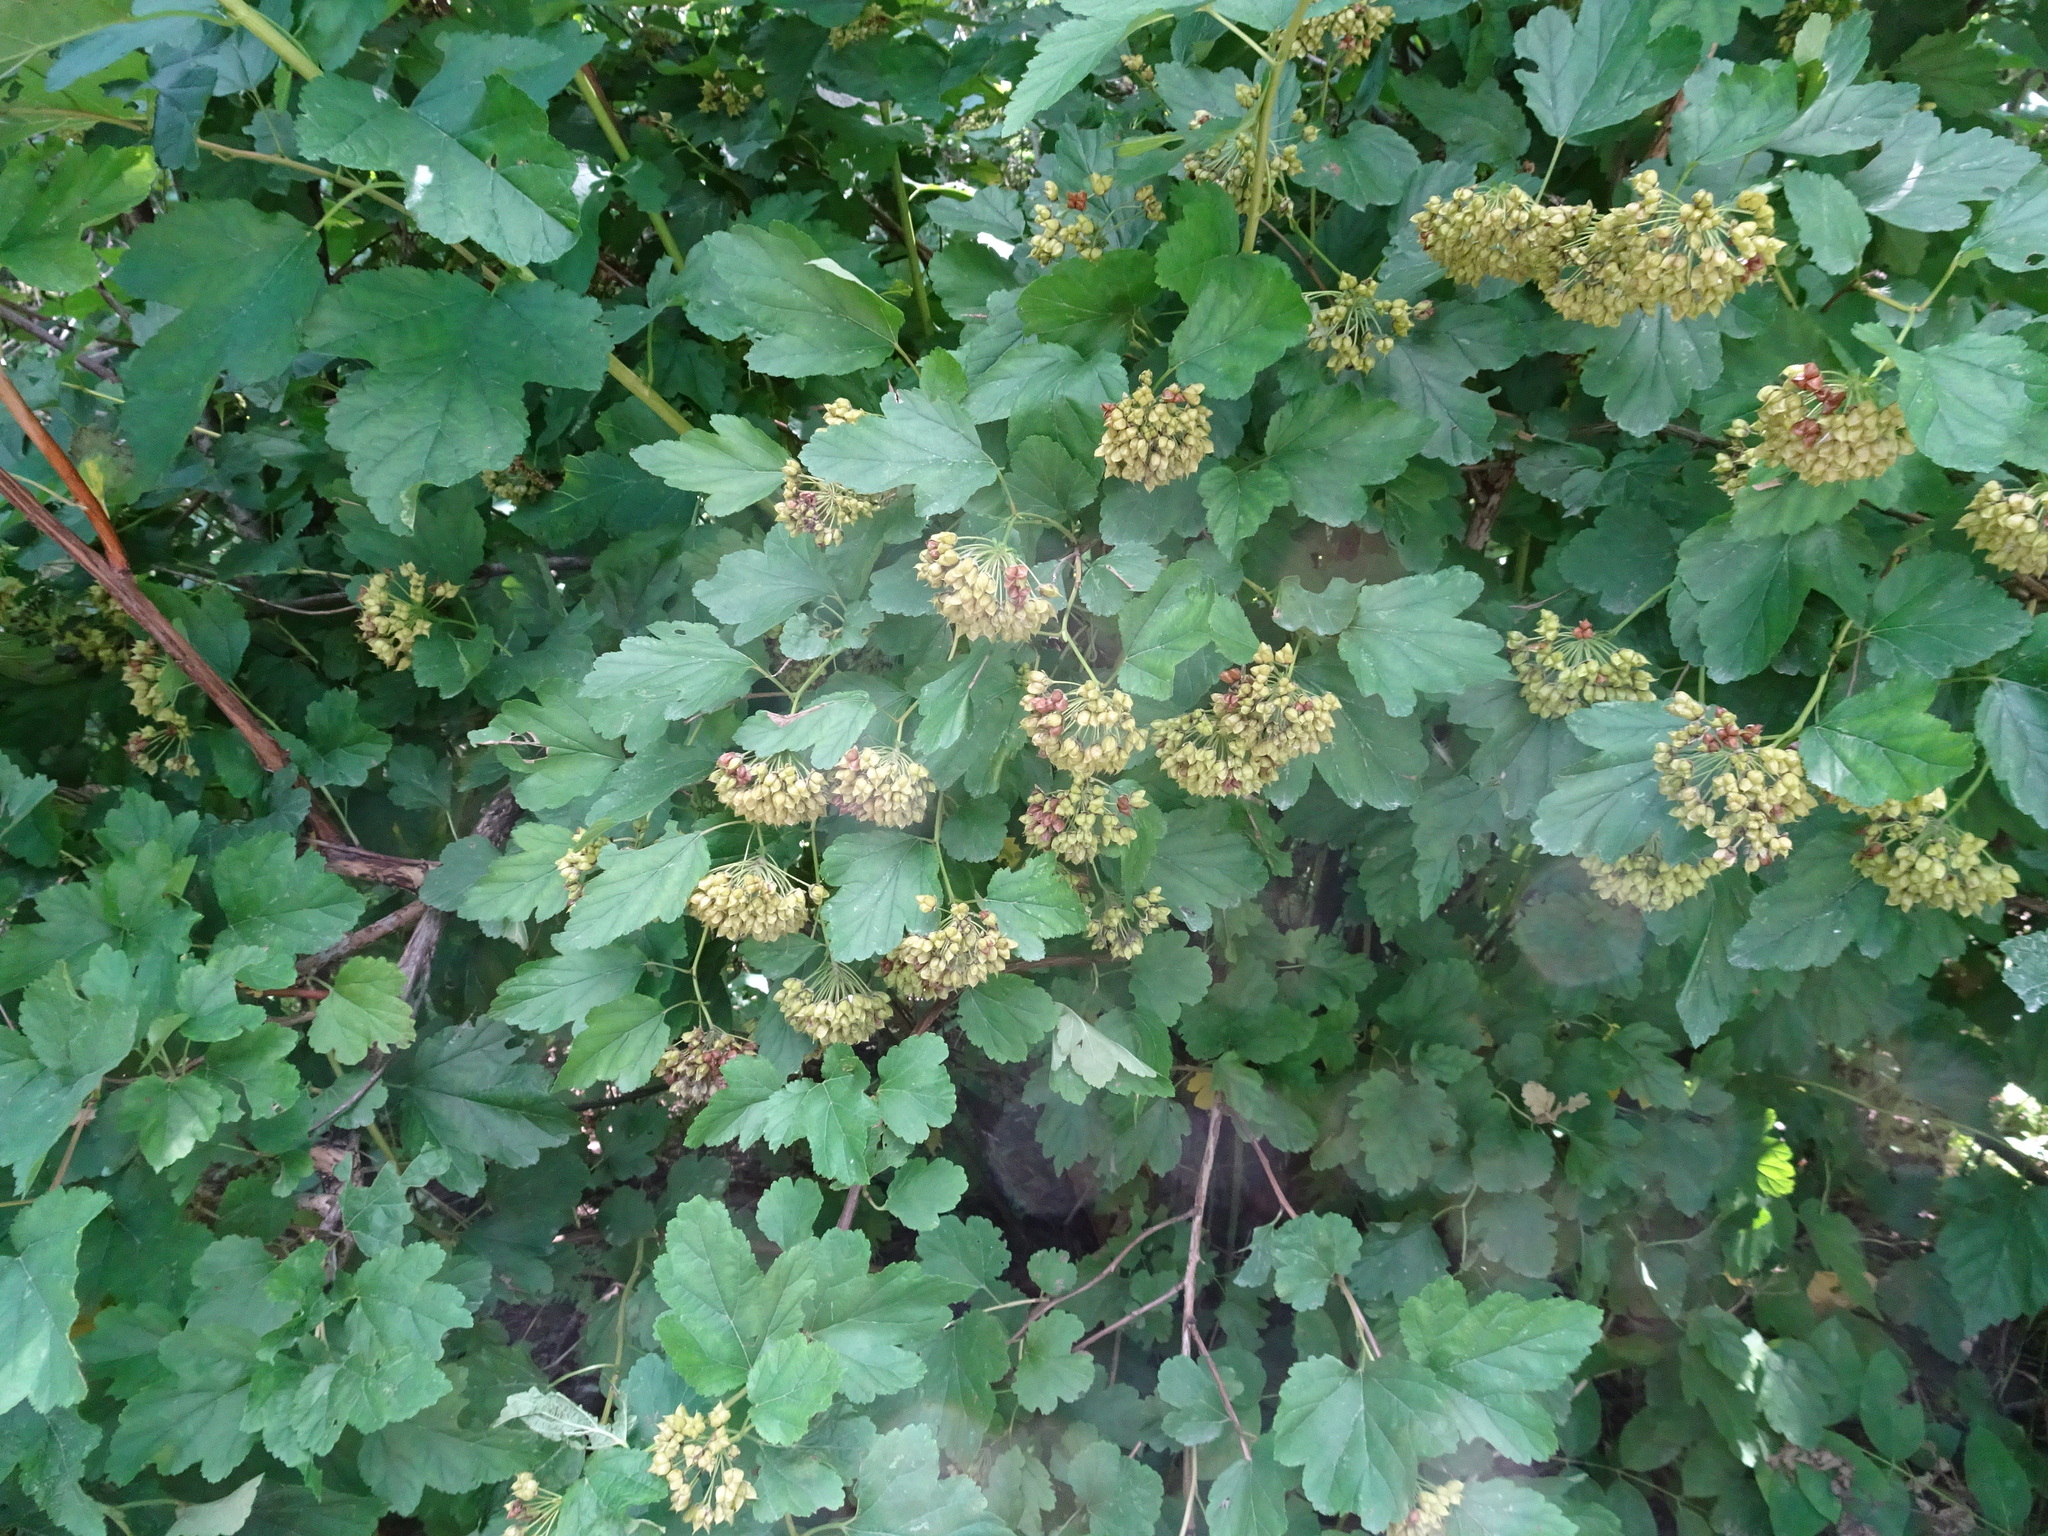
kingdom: Plantae
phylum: Tracheophyta
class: Magnoliopsida
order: Rosales
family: Rosaceae
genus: Physocarpus
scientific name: Physocarpus opulifolius
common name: Ninebark
